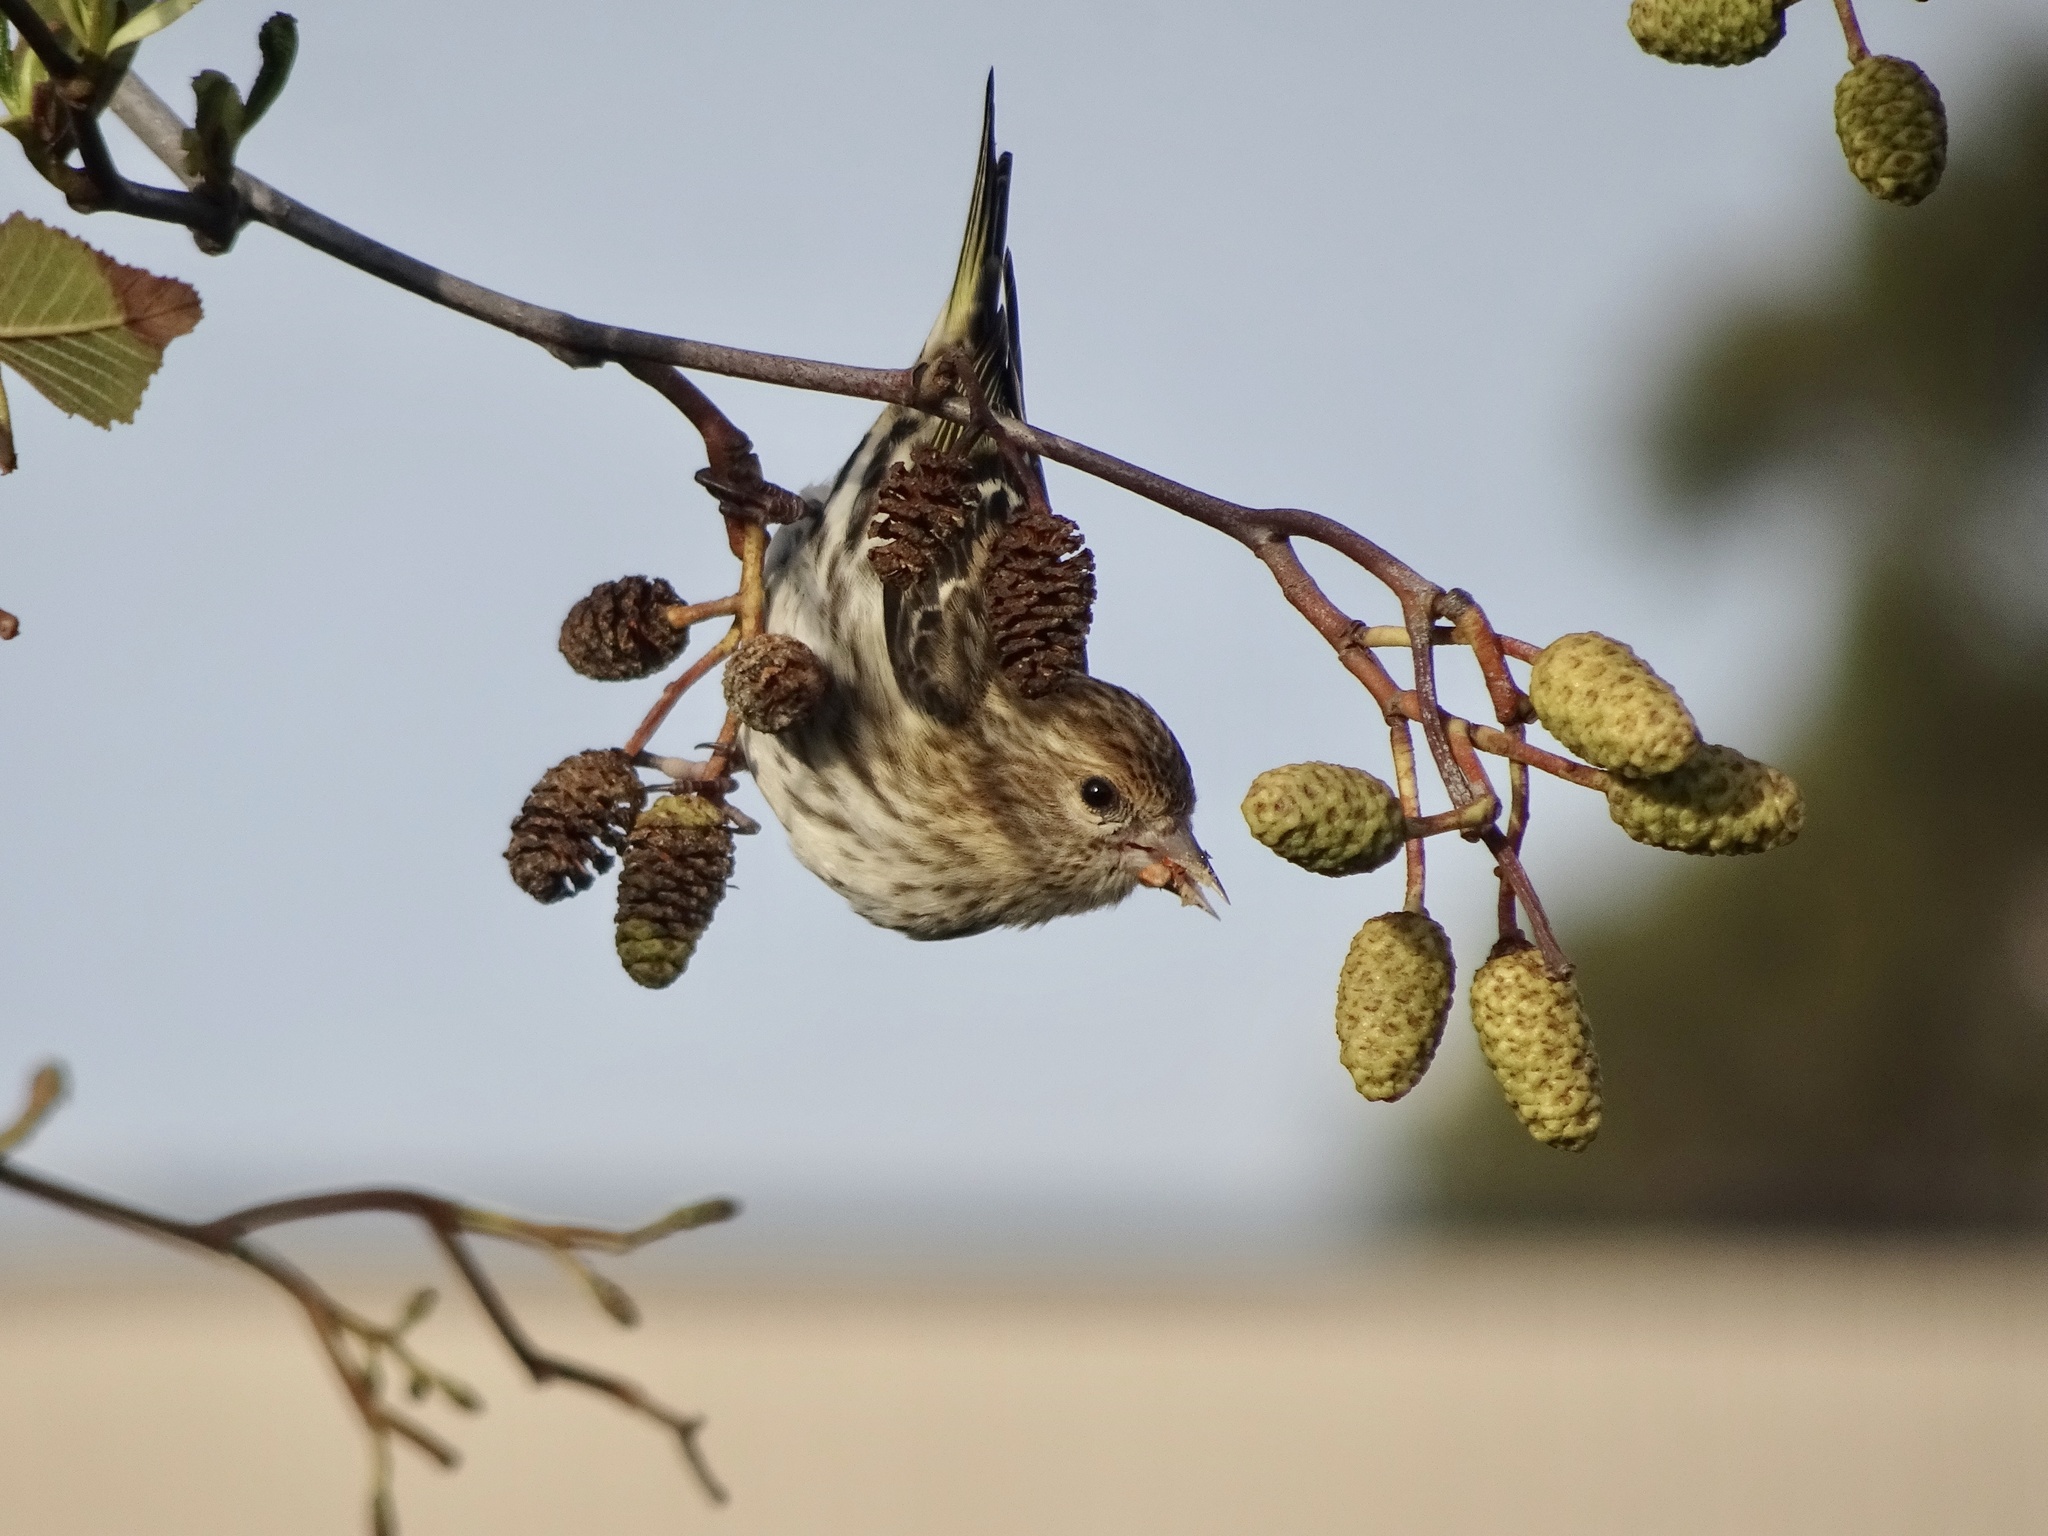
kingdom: Animalia
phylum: Chordata
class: Aves
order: Passeriformes
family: Fringillidae
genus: Spinus
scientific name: Spinus pinus
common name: Pine siskin
